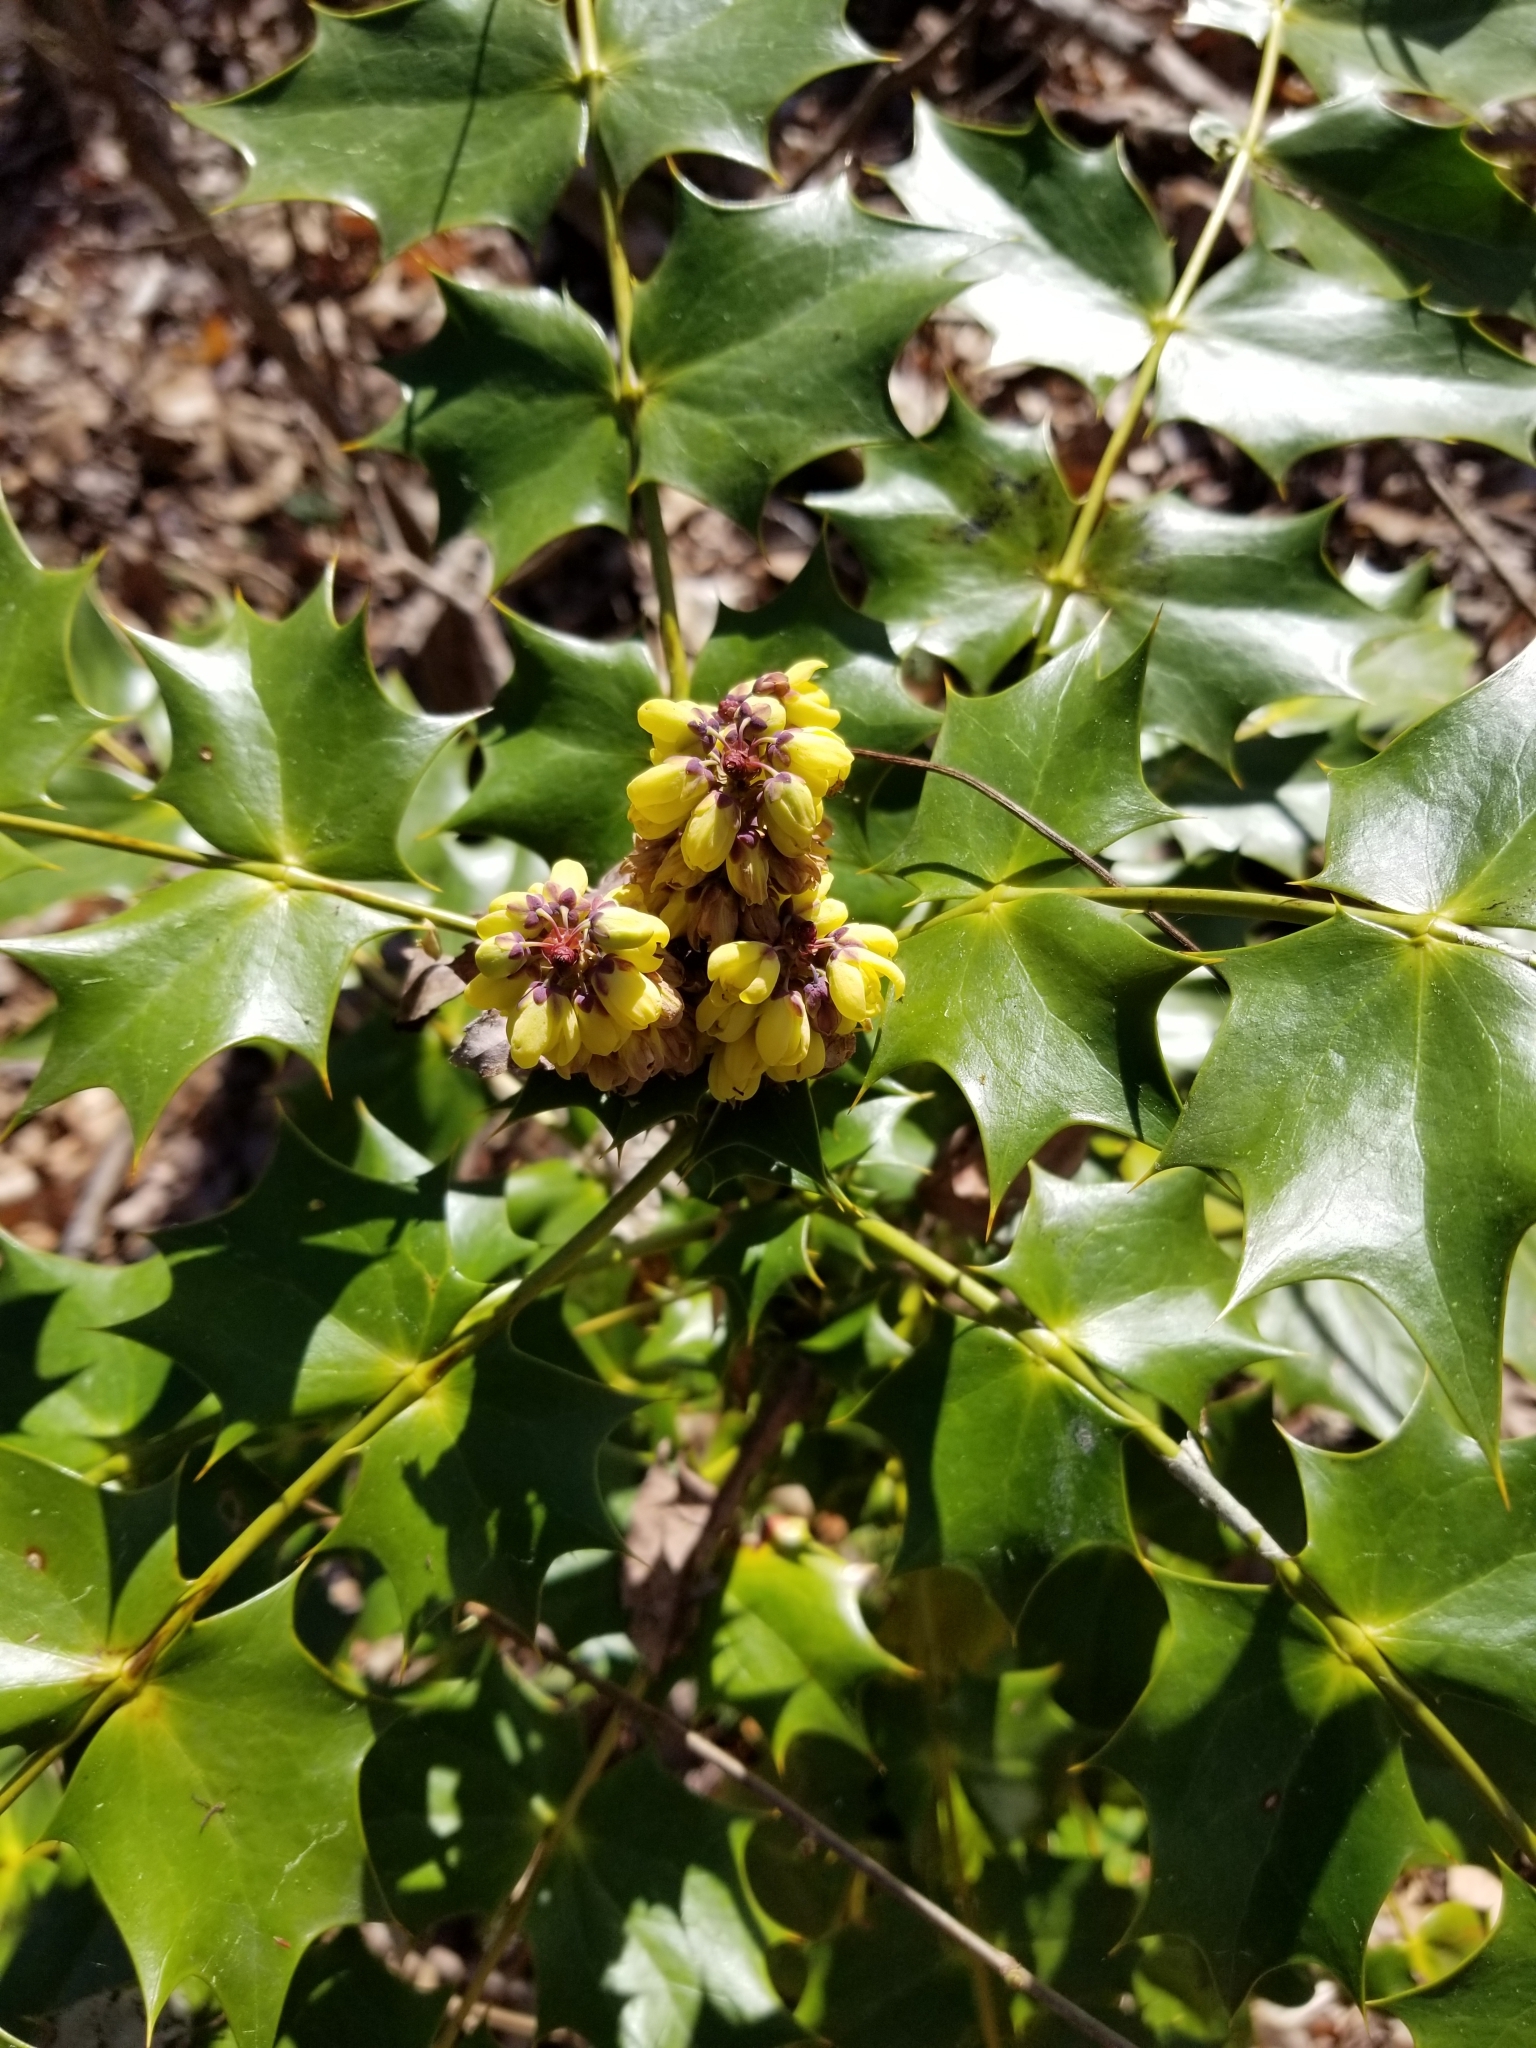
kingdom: Plantae
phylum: Tracheophyta
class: Magnoliopsida
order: Ranunculales
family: Berberidaceae
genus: Mahonia
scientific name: Mahonia bealei
